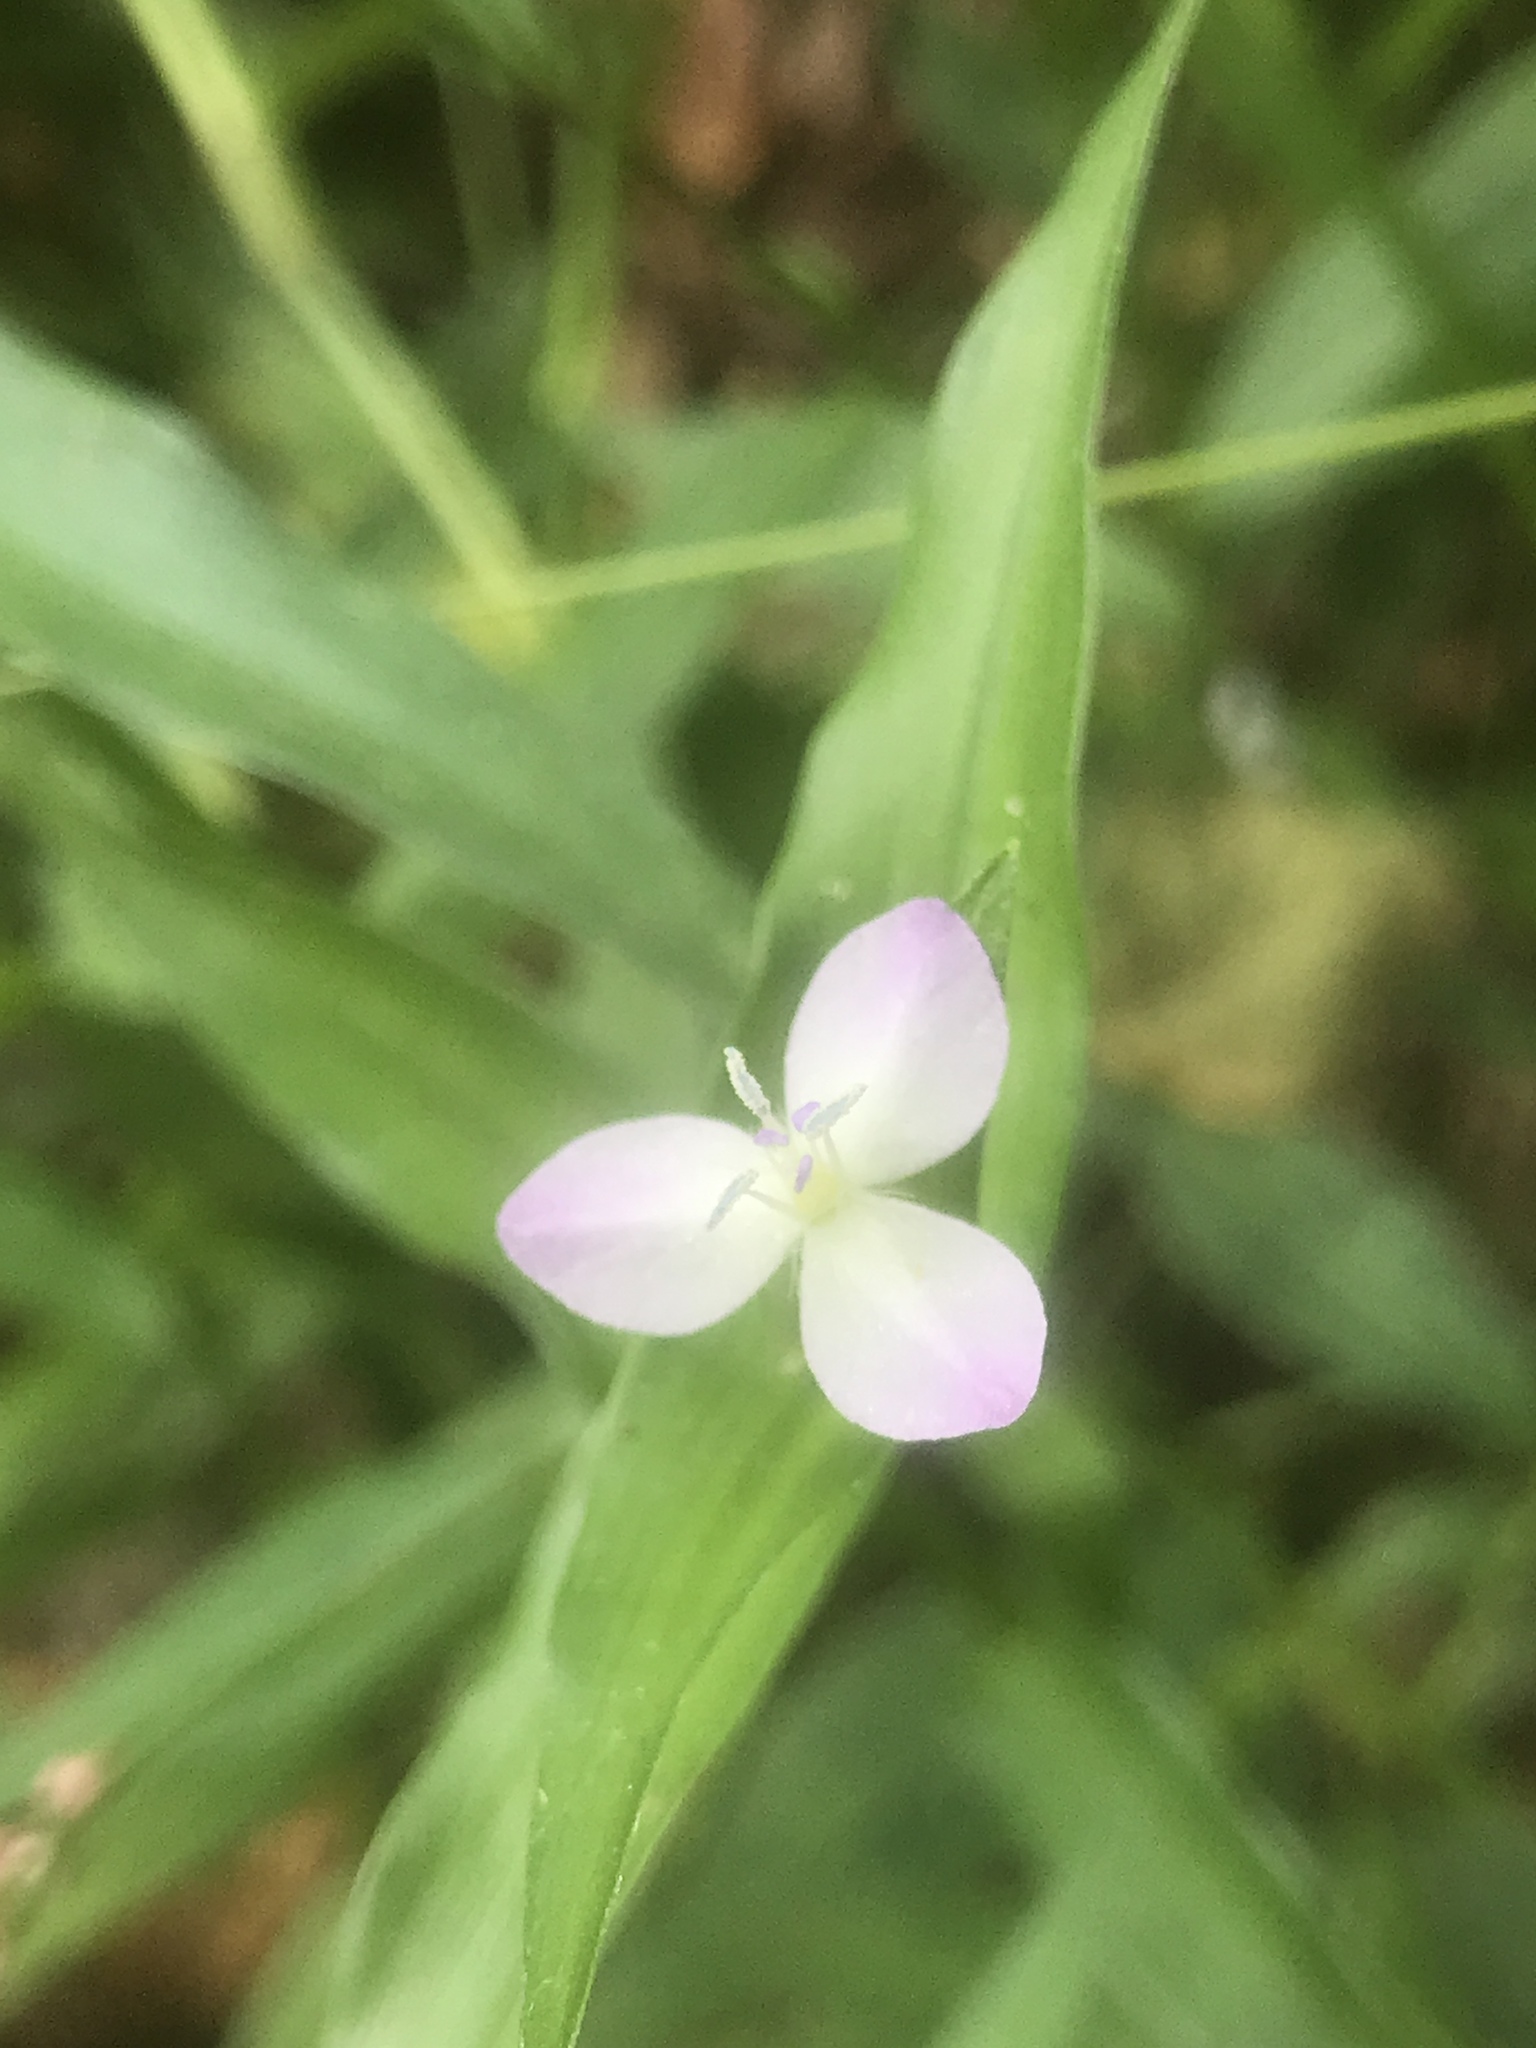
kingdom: Plantae
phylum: Tracheophyta
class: Liliopsida
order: Commelinales
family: Commelinaceae
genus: Murdannia
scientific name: Murdannia keisak
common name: Wartremoving herb
